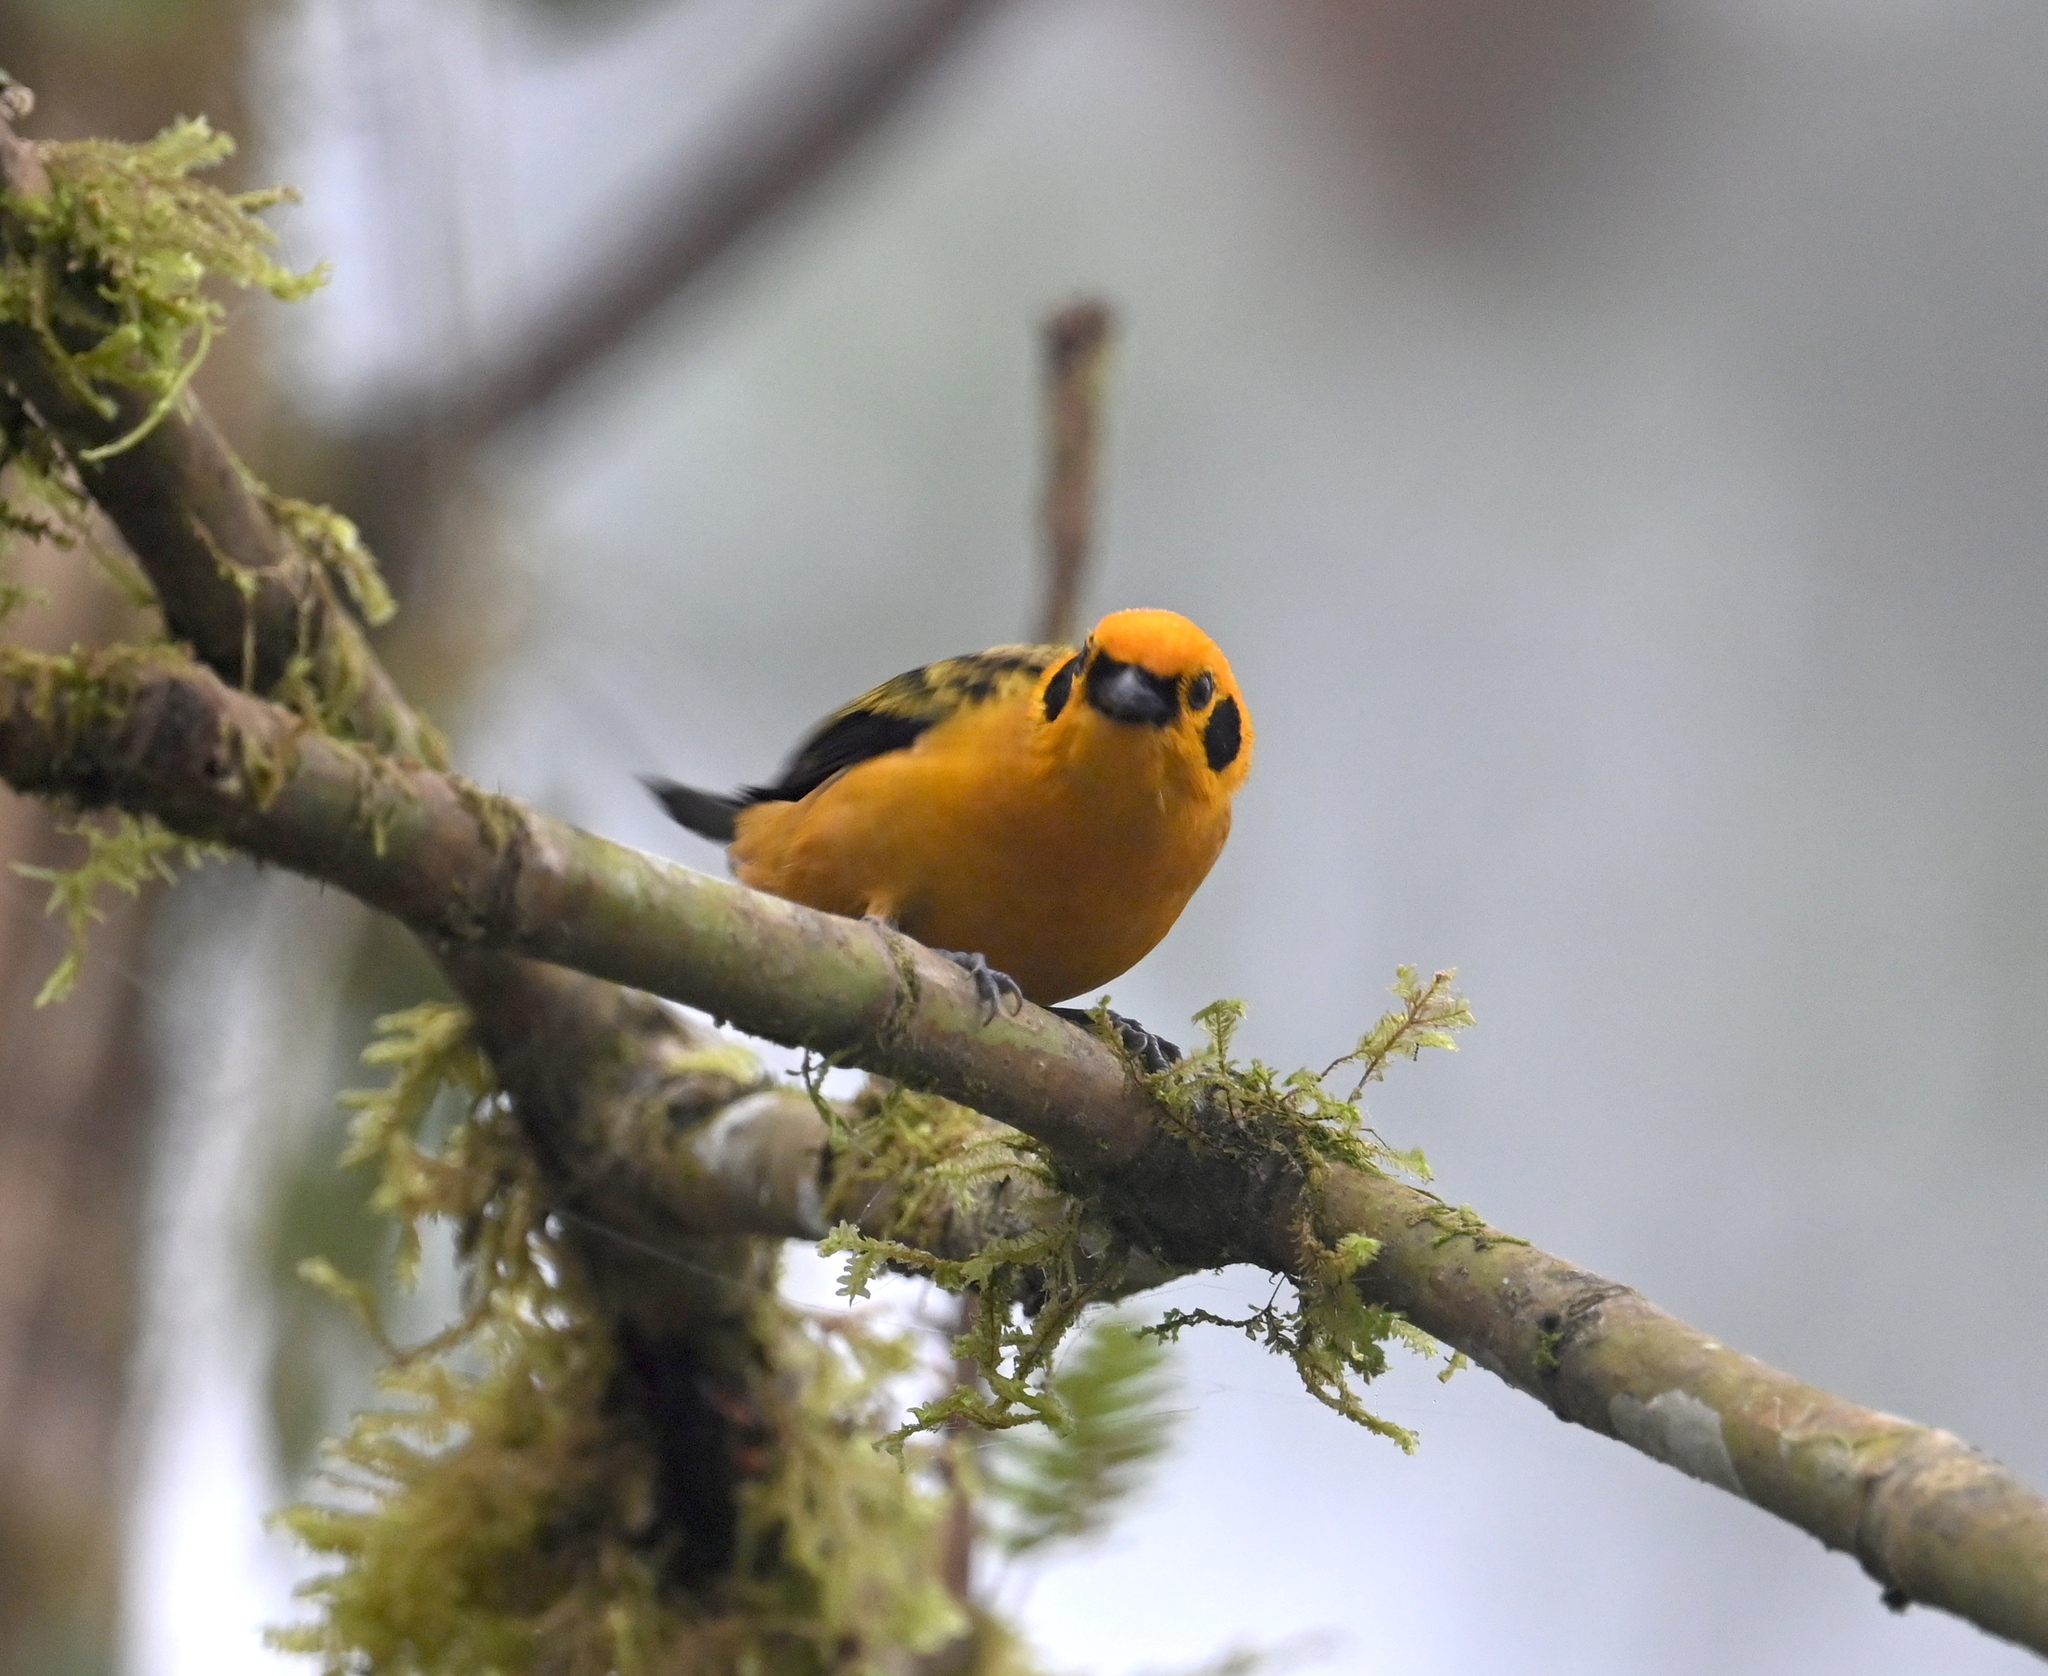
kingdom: Animalia
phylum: Chordata
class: Aves
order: Passeriformes
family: Thraupidae
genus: Tangara
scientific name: Tangara arthus
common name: Golden tanager
